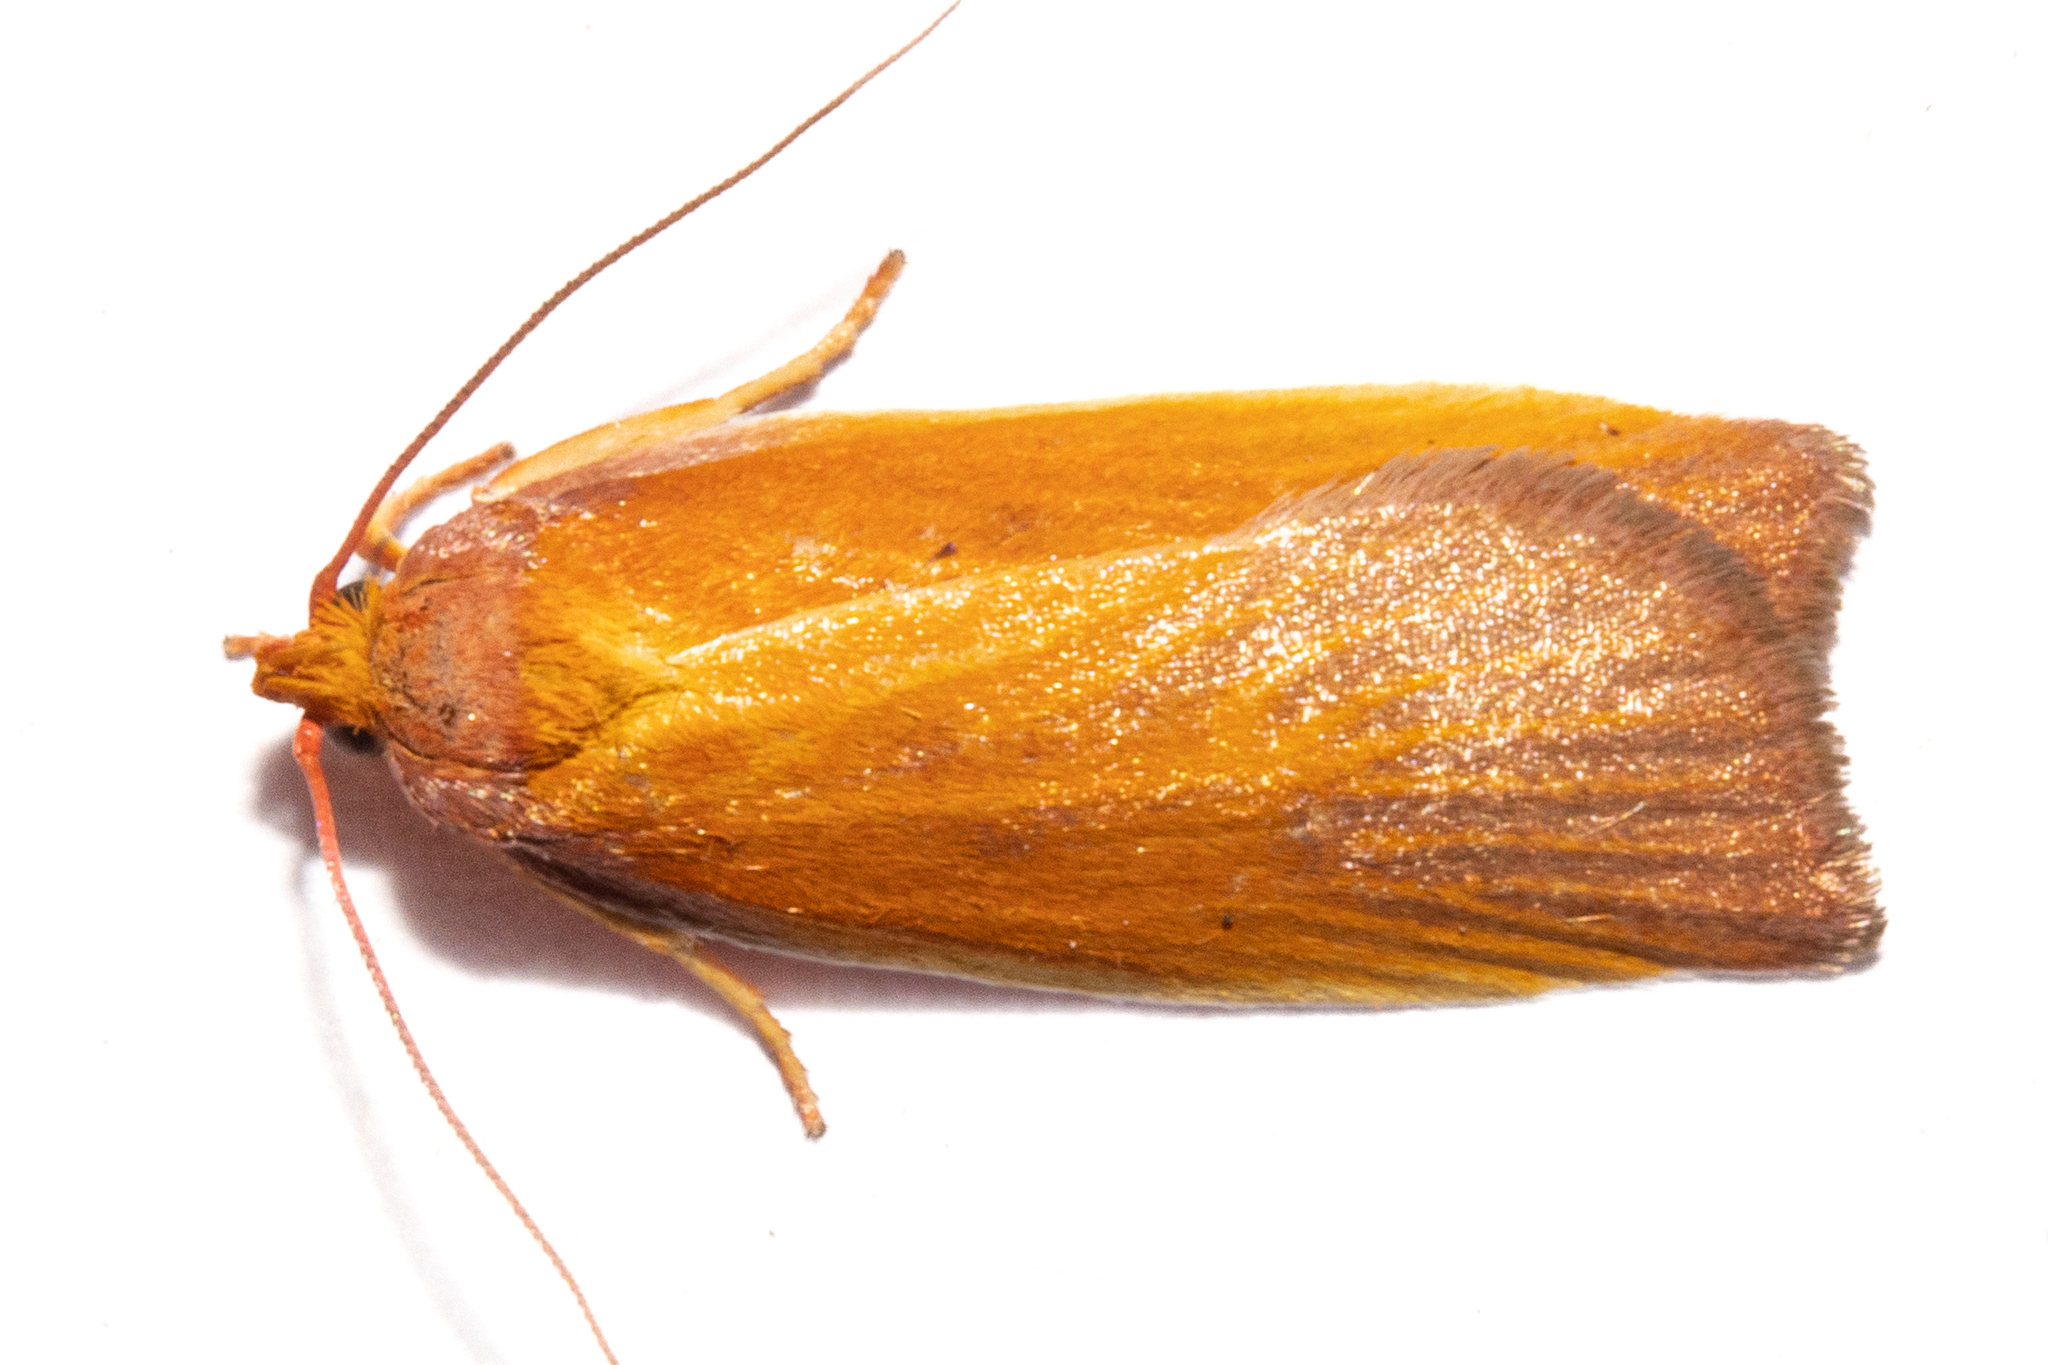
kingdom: Animalia
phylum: Arthropoda
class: Insecta
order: Lepidoptera
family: Oecophoridae
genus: Proteodes
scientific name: Proteodes smithi
